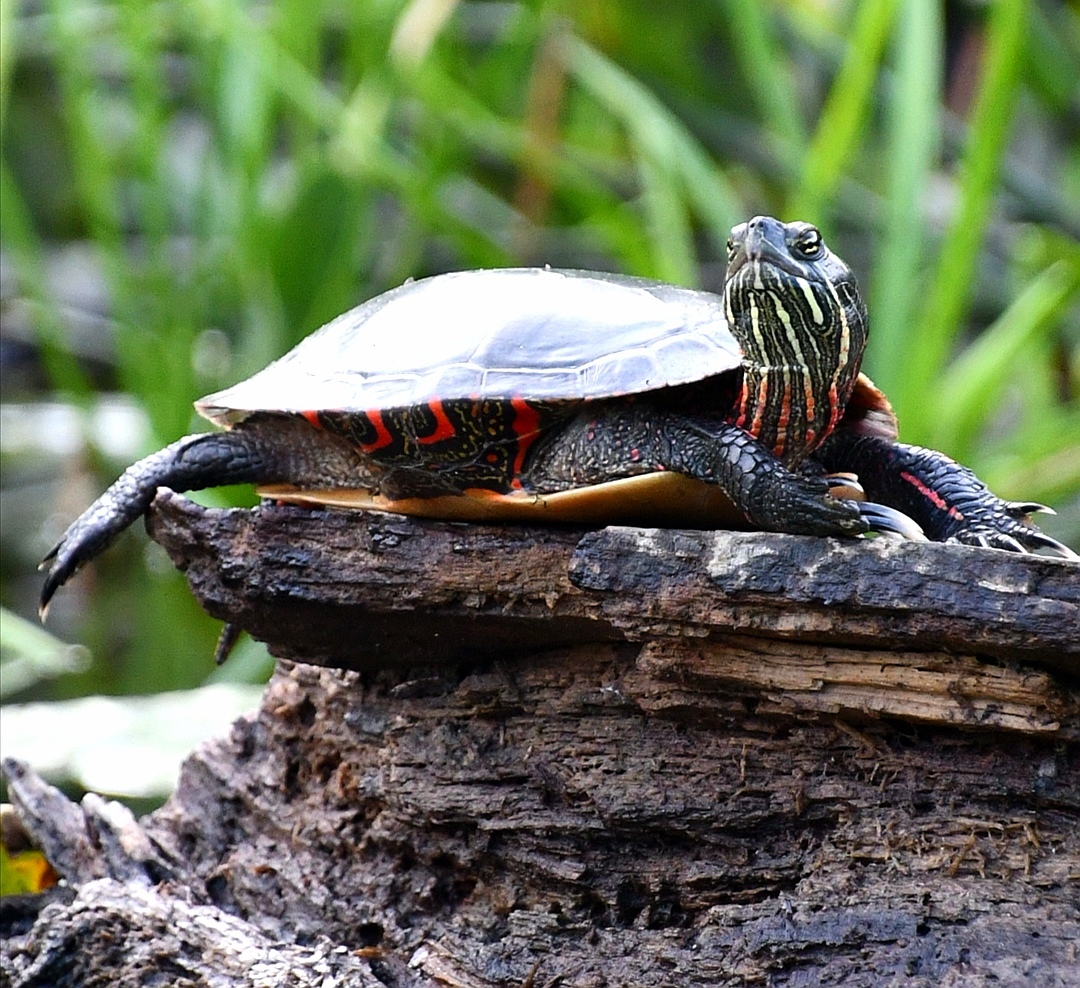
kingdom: Animalia
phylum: Chordata
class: Testudines
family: Emydidae
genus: Chrysemys
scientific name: Chrysemys picta
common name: Painted turtle
